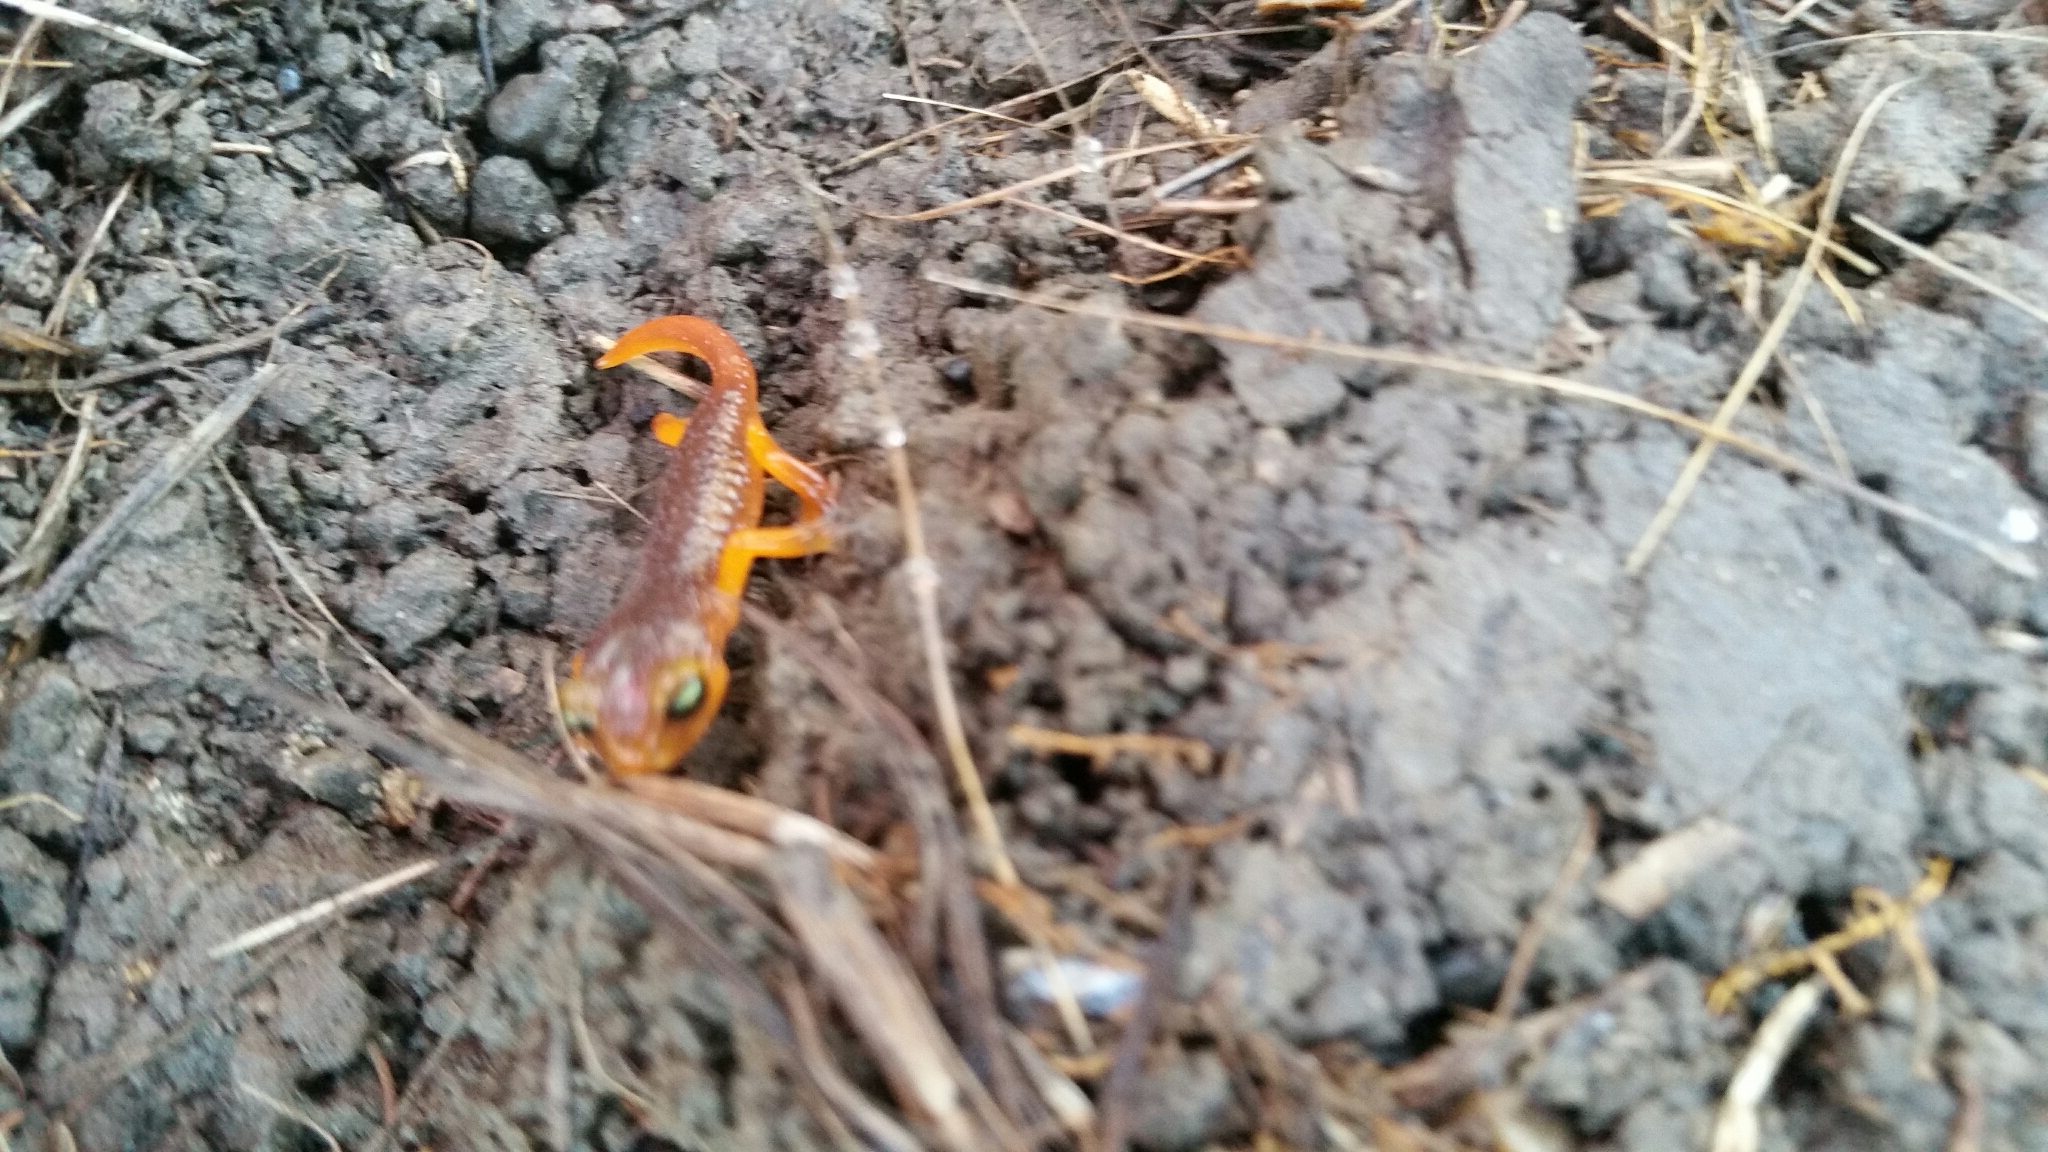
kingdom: Animalia
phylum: Chordata
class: Amphibia
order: Caudata
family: Plethodontidae
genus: Ensatina
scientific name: Ensatina eschscholtzii
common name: Ensatina
